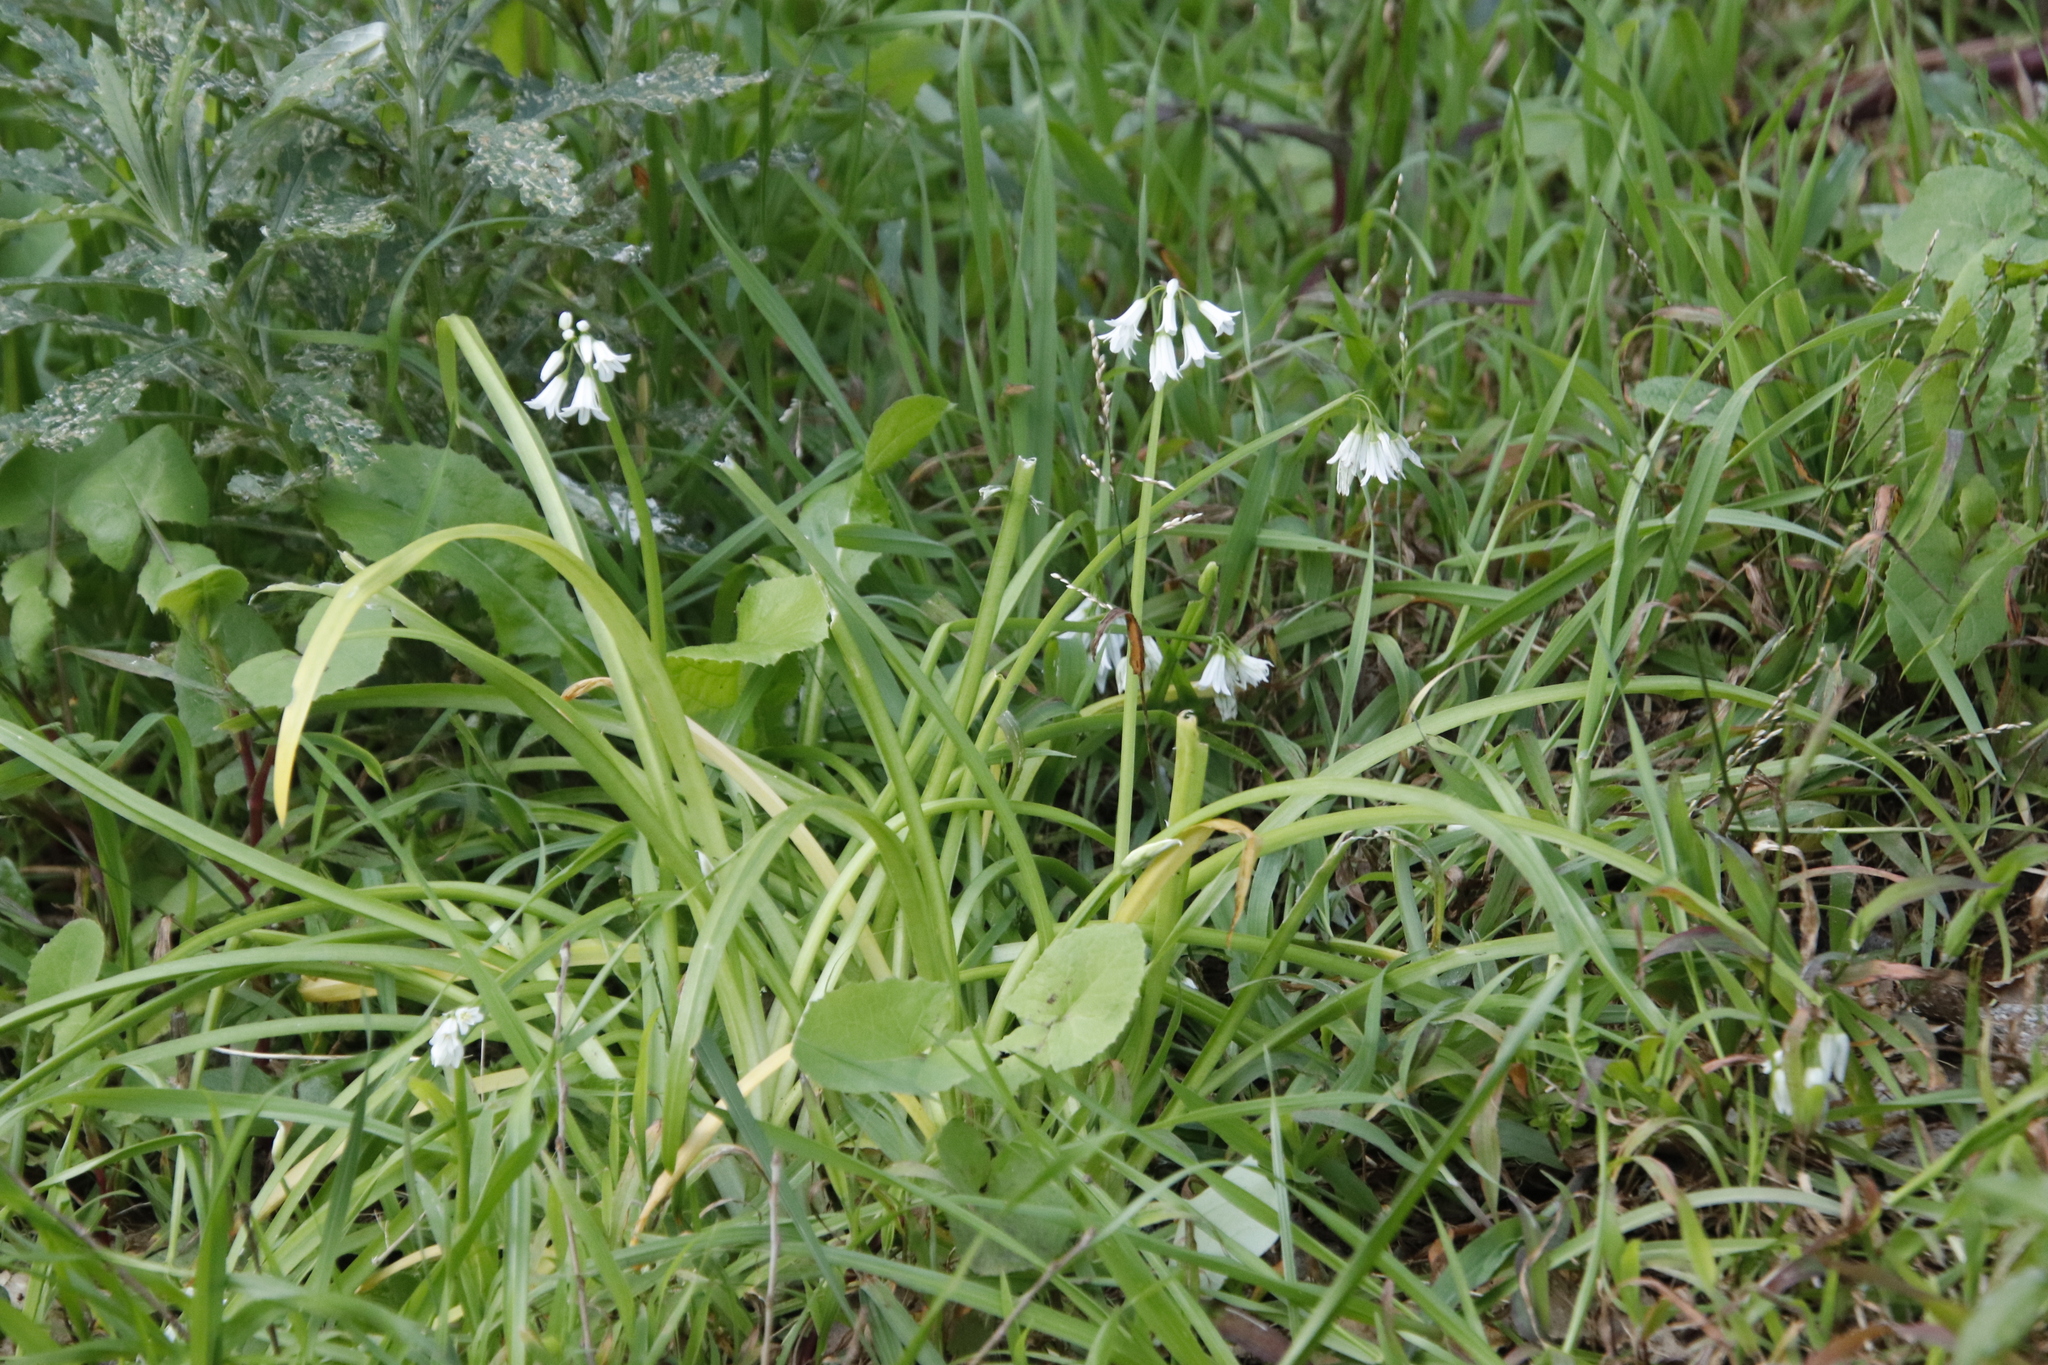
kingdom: Plantae
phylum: Tracheophyta
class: Liliopsida
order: Asparagales
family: Amaryllidaceae
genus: Allium
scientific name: Allium triquetrum
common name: Three-cornered garlic
